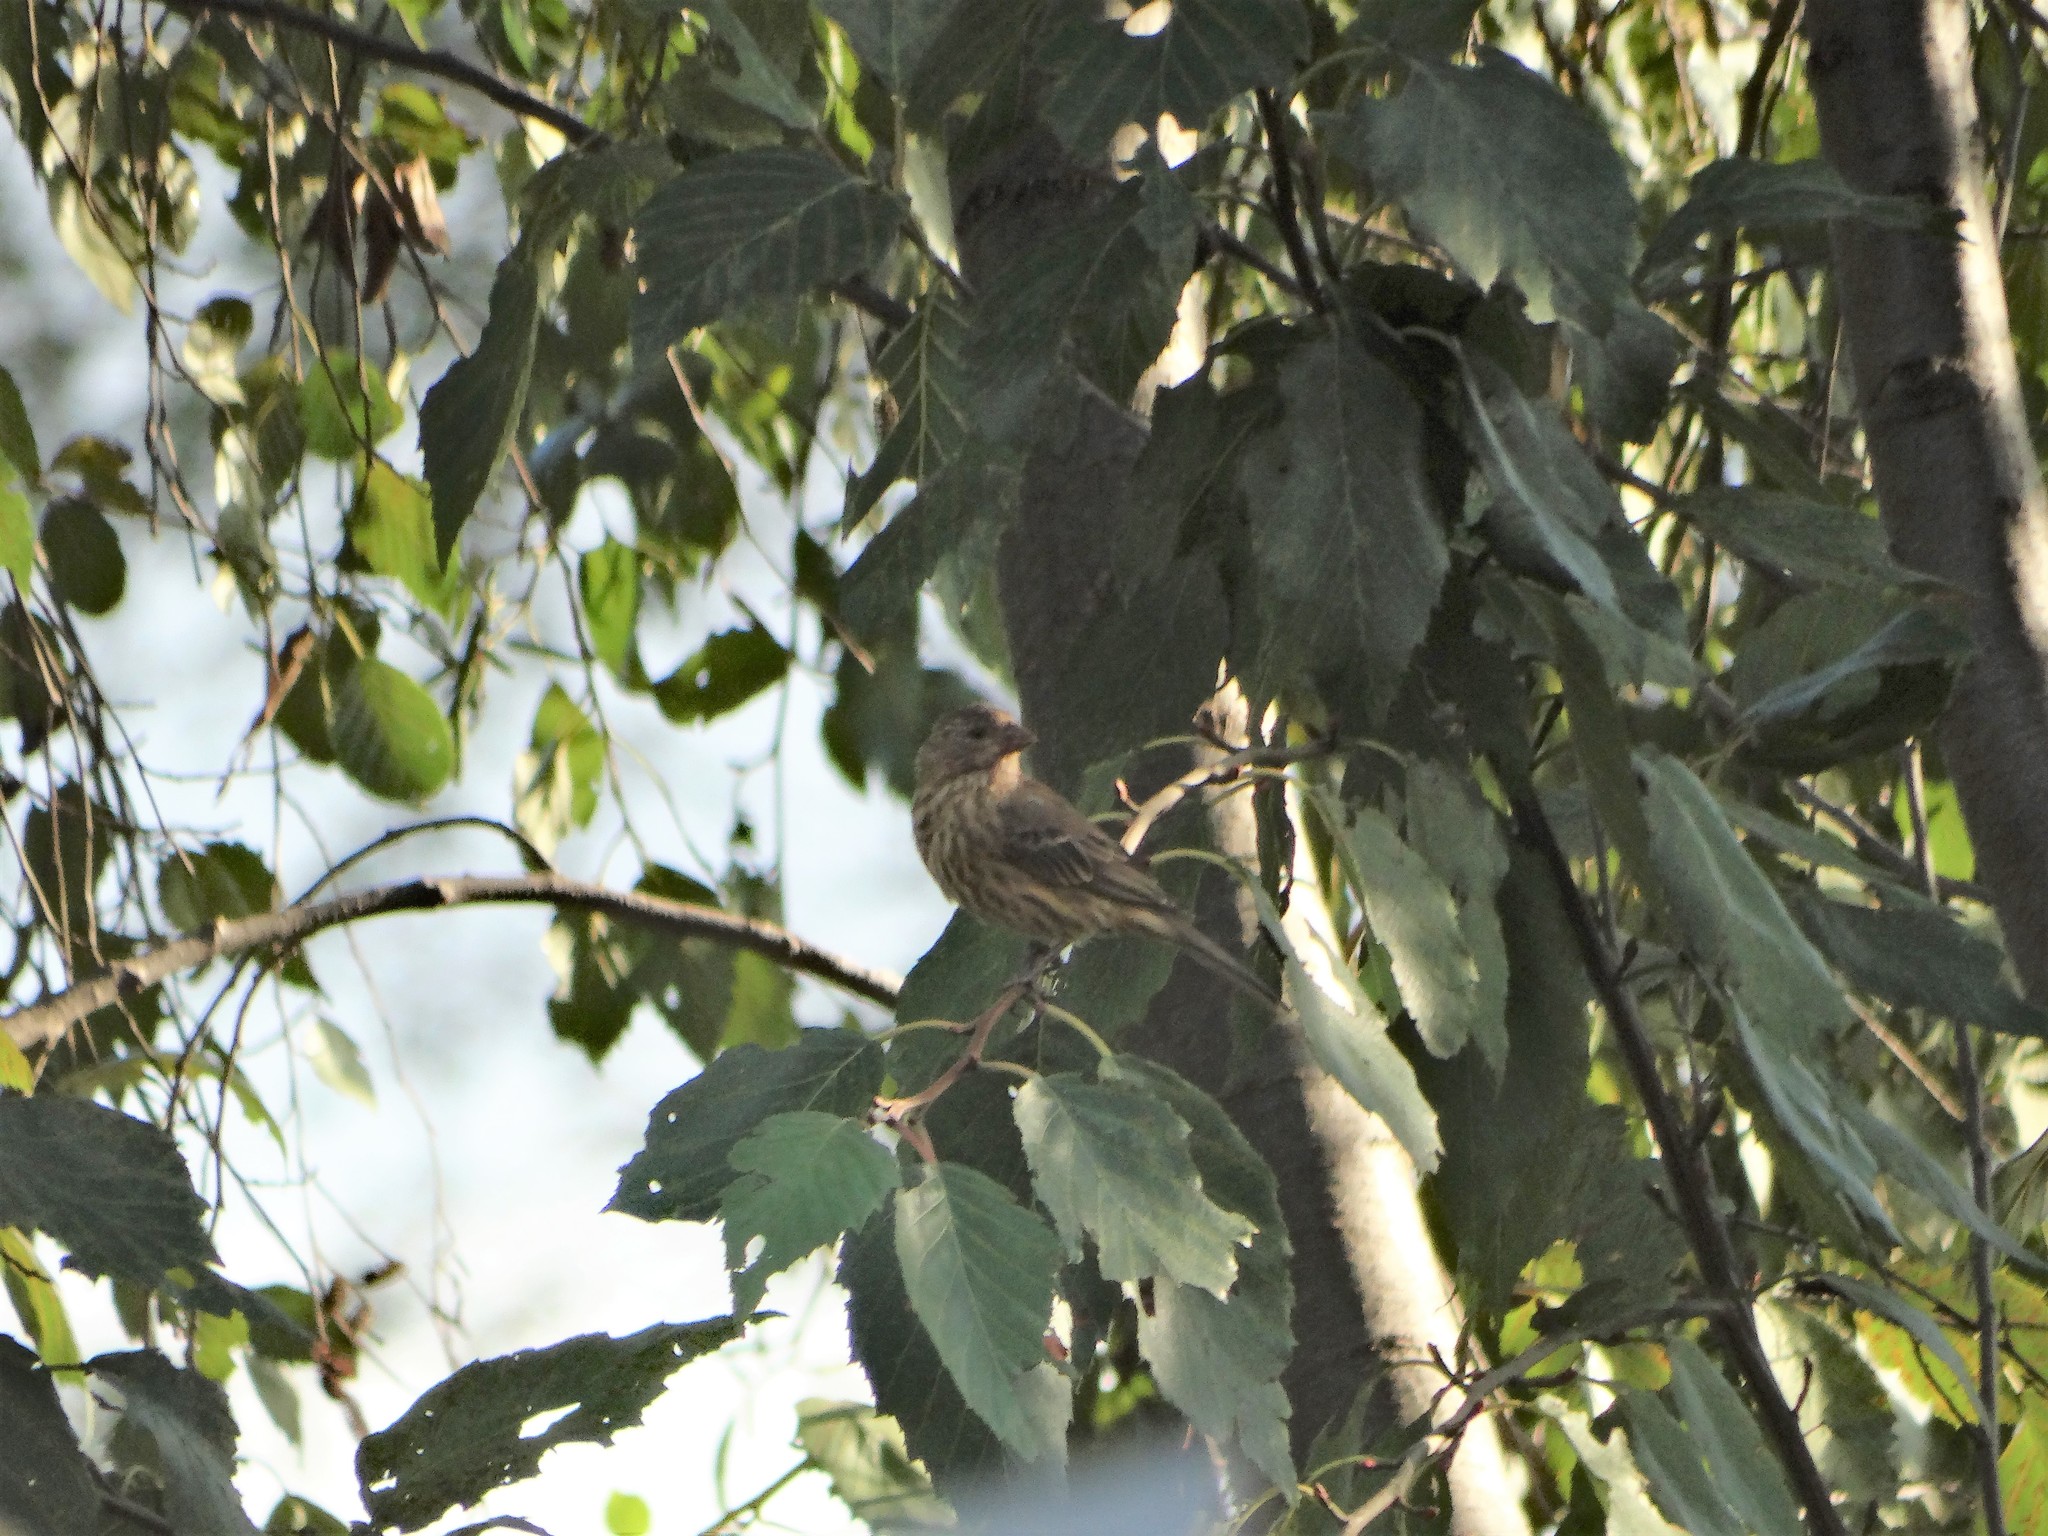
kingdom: Animalia
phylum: Chordata
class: Aves
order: Passeriformes
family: Fringillidae
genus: Haemorhous
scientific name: Haemorhous mexicanus
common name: House finch
